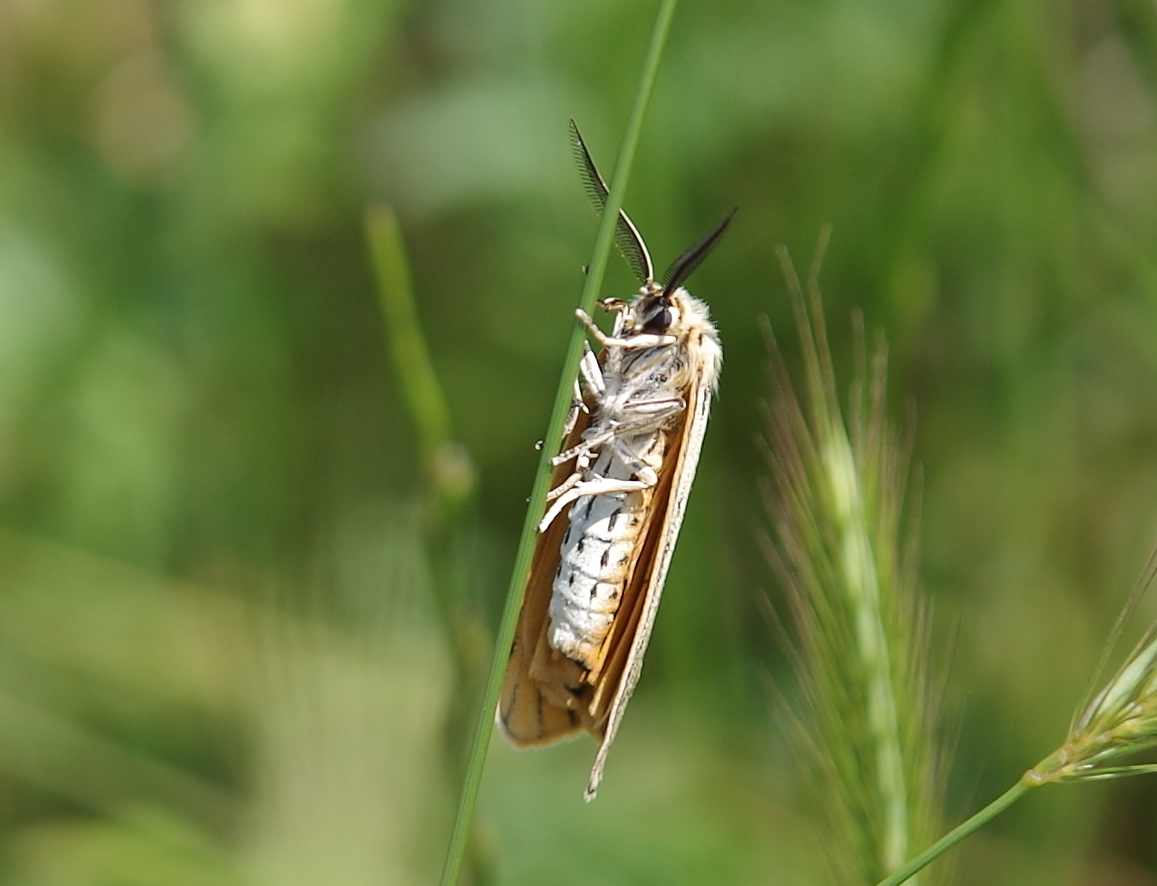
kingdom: Animalia
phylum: Arthropoda
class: Insecta
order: Lepidoptera
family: Erebidae
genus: Coscinia
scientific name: Coscinia Spiris striata
